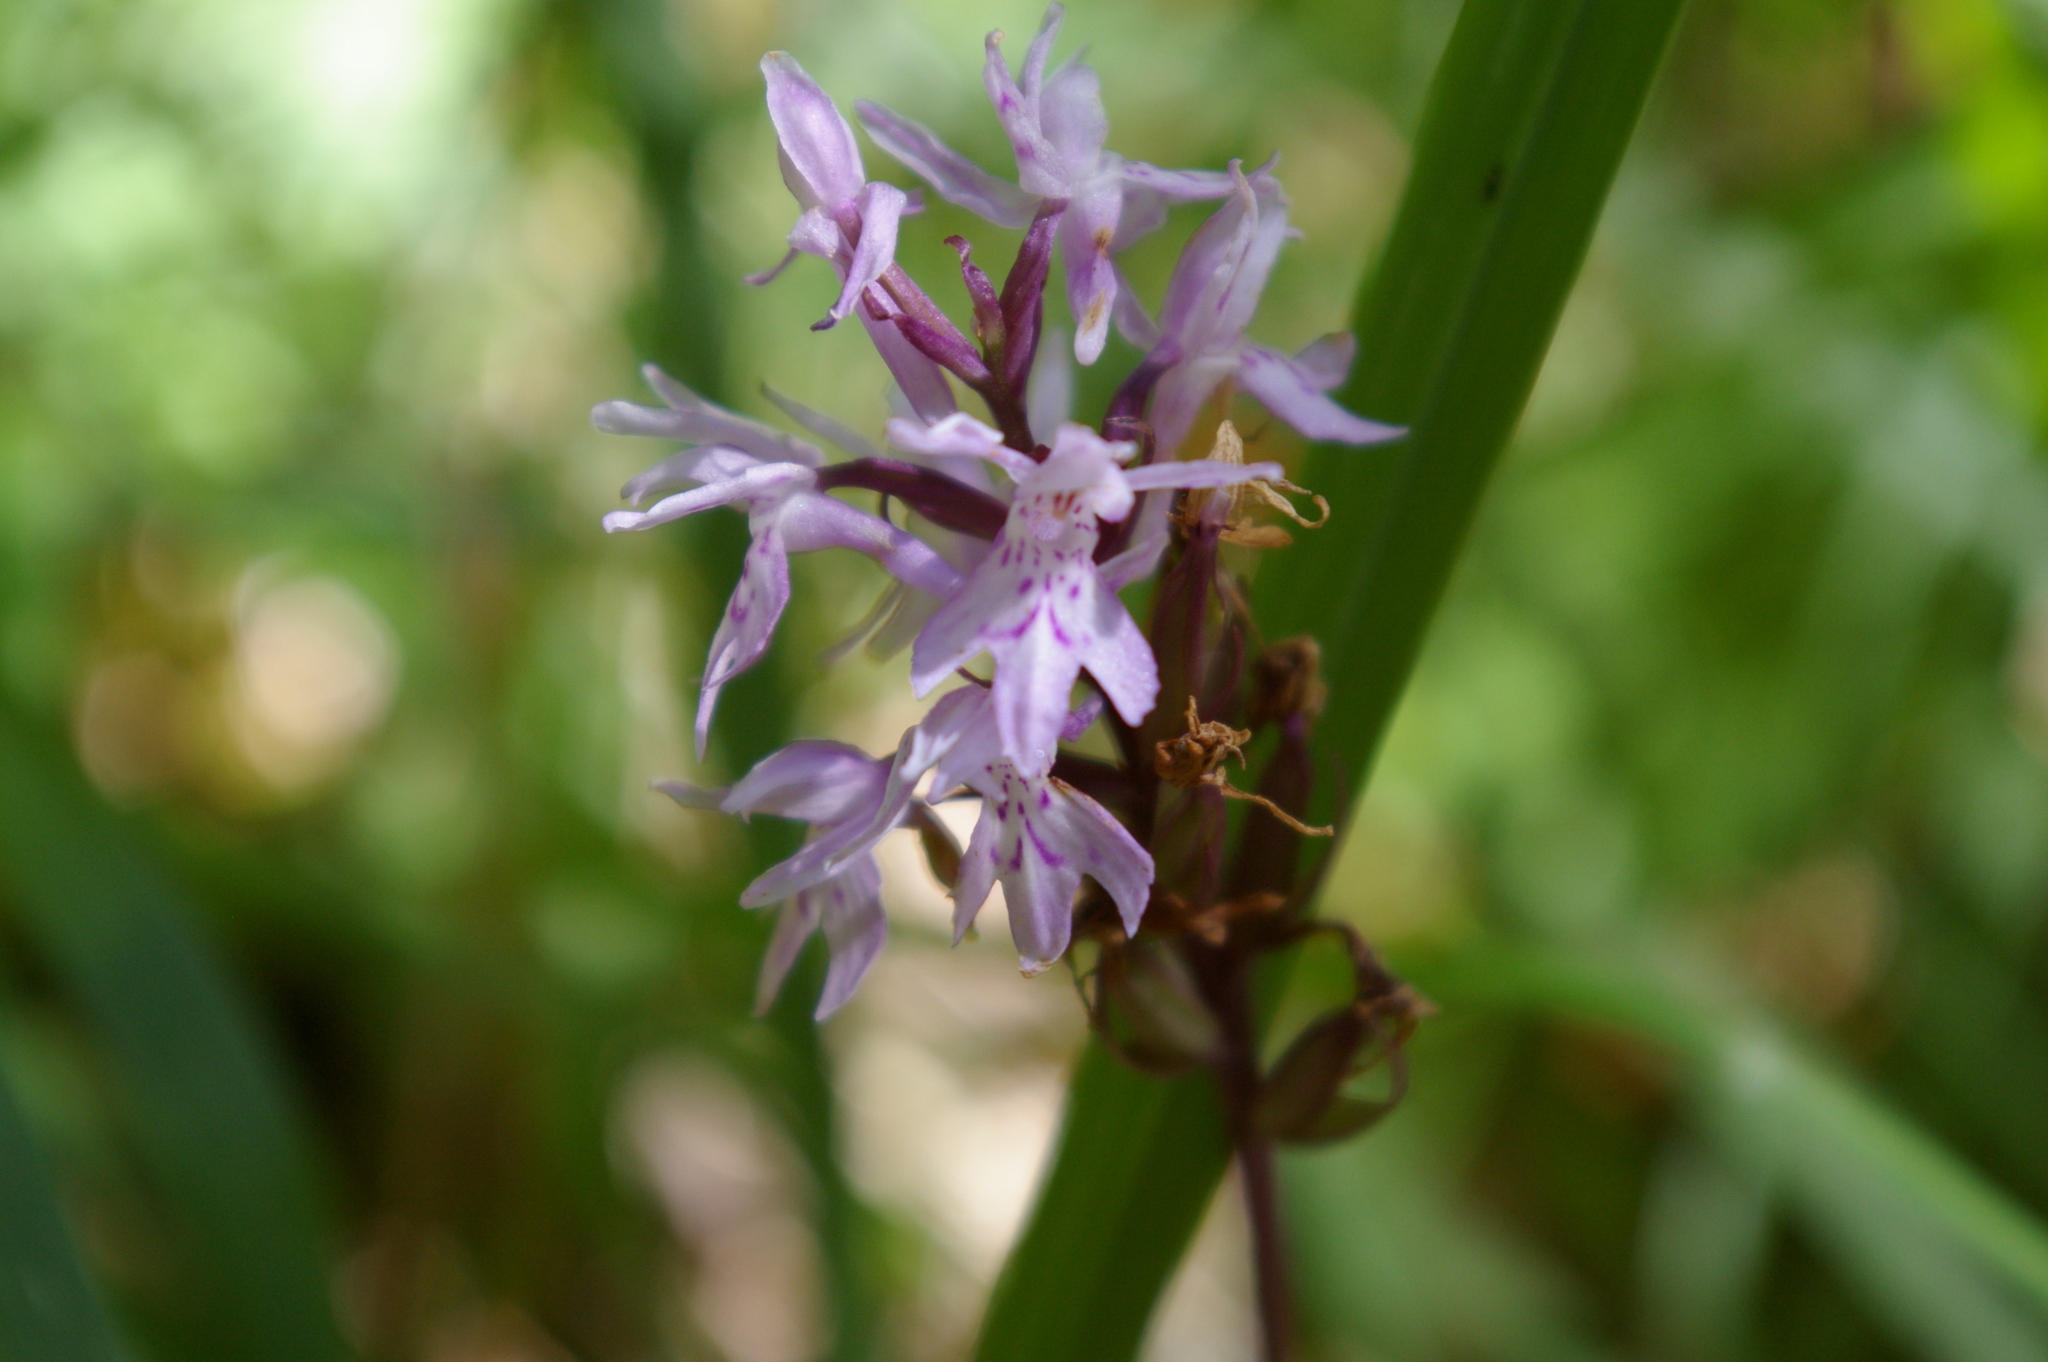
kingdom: Plantae
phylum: Tracheophyta
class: Liliopsida
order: Asparagales
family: Orchidaceae
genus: Dactylorhiza
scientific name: Dactylorhiza maculata
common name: Heath spotted-orchid
